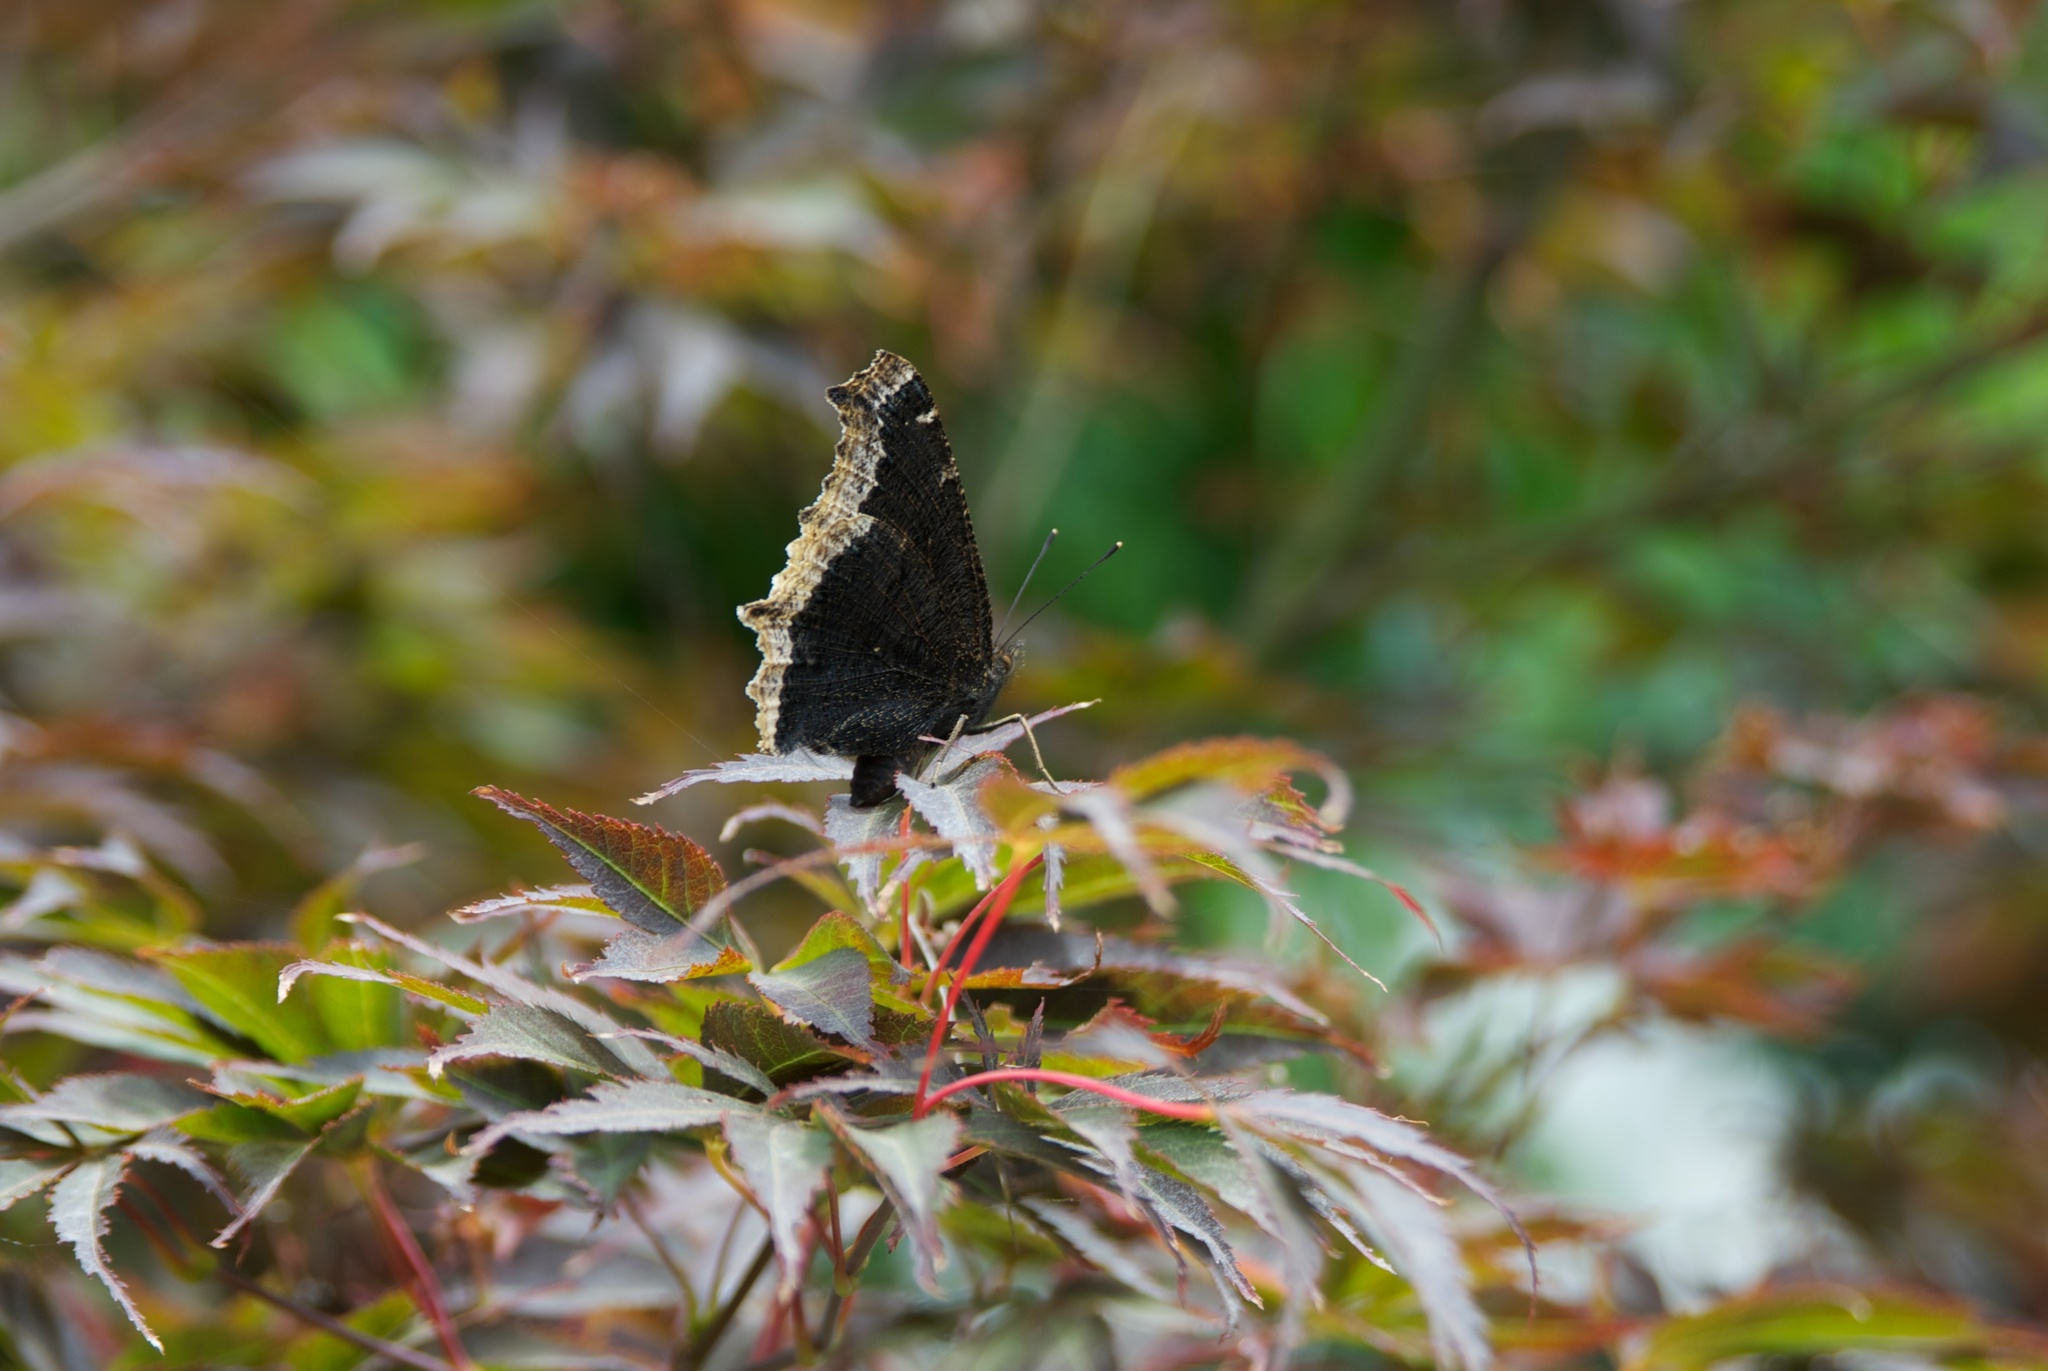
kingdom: Animalia
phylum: Arthropoda
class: Insecta
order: Lepidoptera
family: Nymphalidae
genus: Nymphalis
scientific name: Nymphalis antiopa
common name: Camberwell beauty
